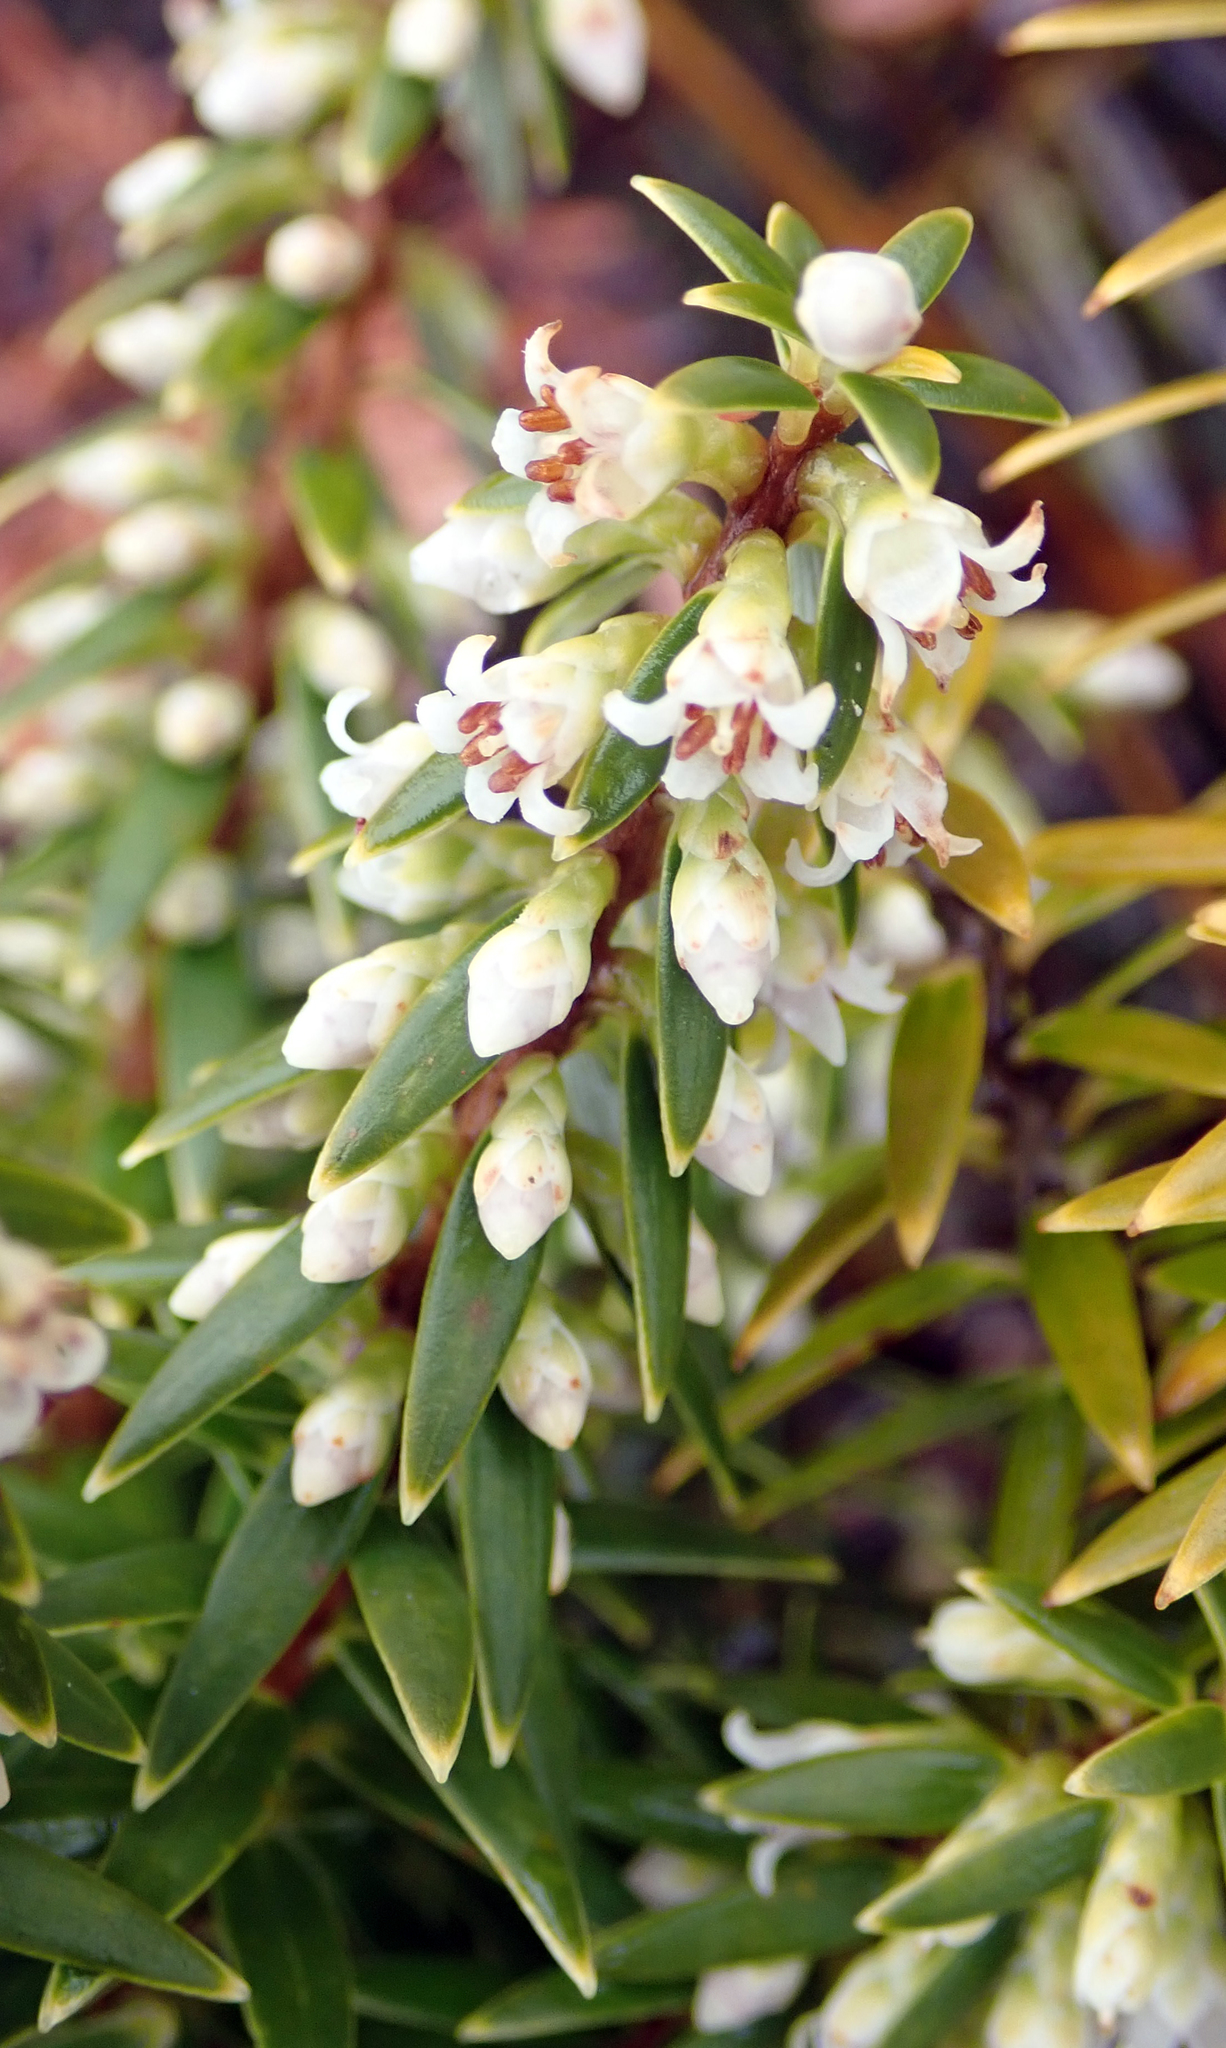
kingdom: Plantae
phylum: Tracheophyta
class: Magnoliopsida
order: Ericales
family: Ericaceae
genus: Leptecophylla
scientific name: Leptecophylla robusta
